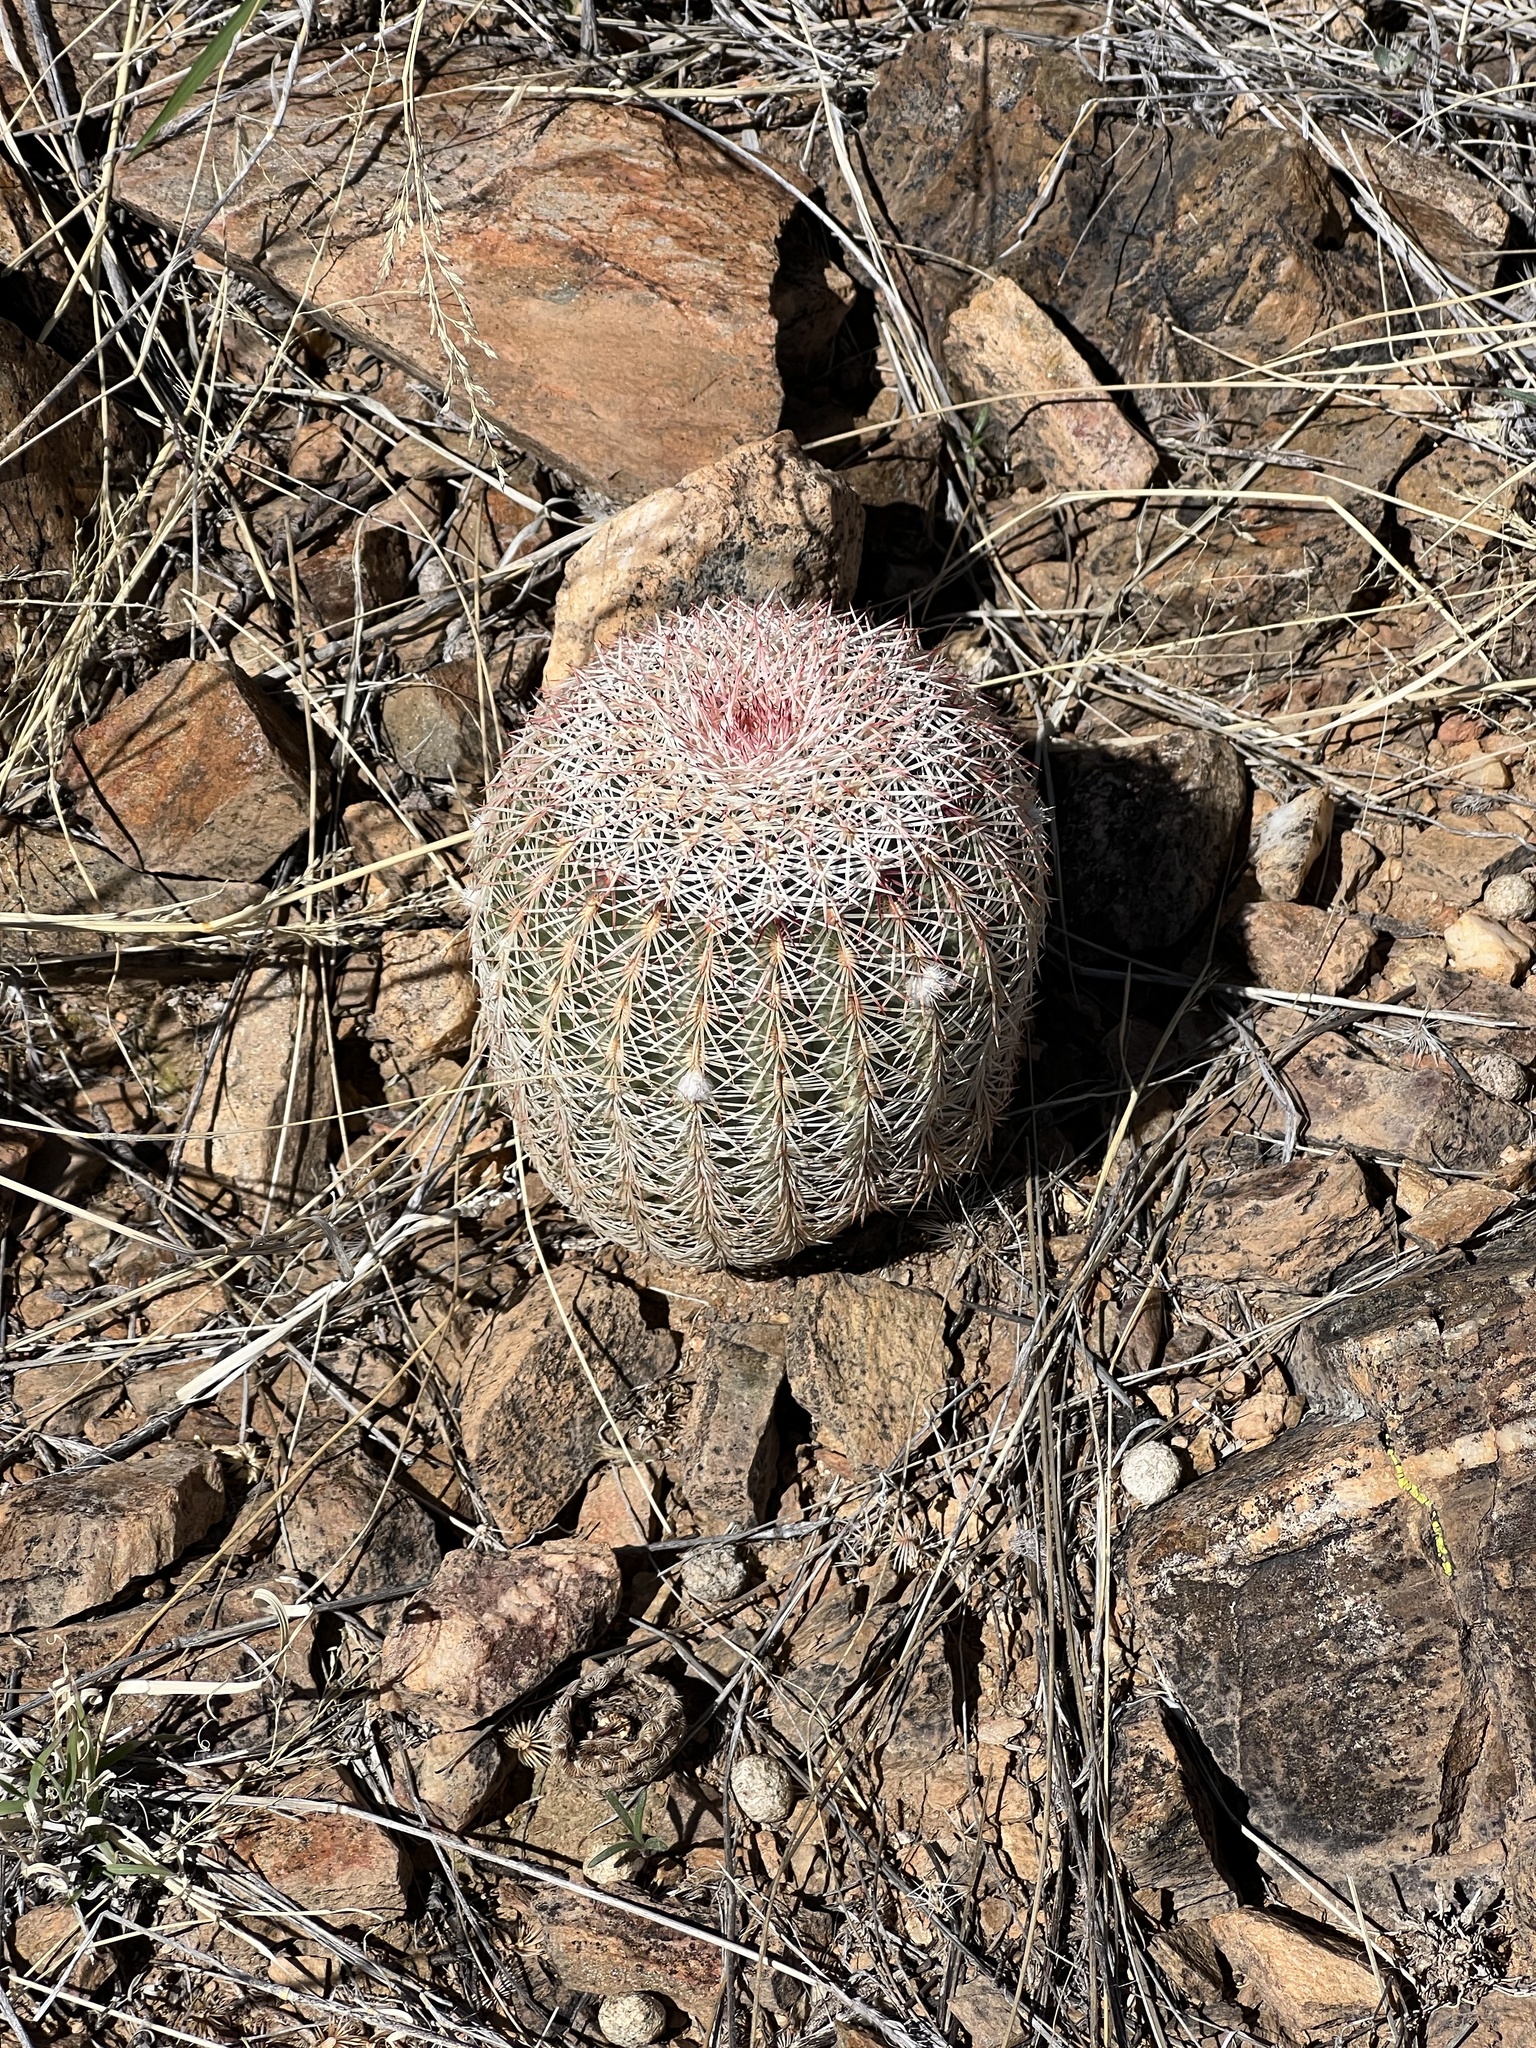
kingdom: Plantae
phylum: Tracheophyta
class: Magnoliopsida
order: Caryophyllales
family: Cactaceae
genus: Echinocereus
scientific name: Echinocereus rigidissimus
